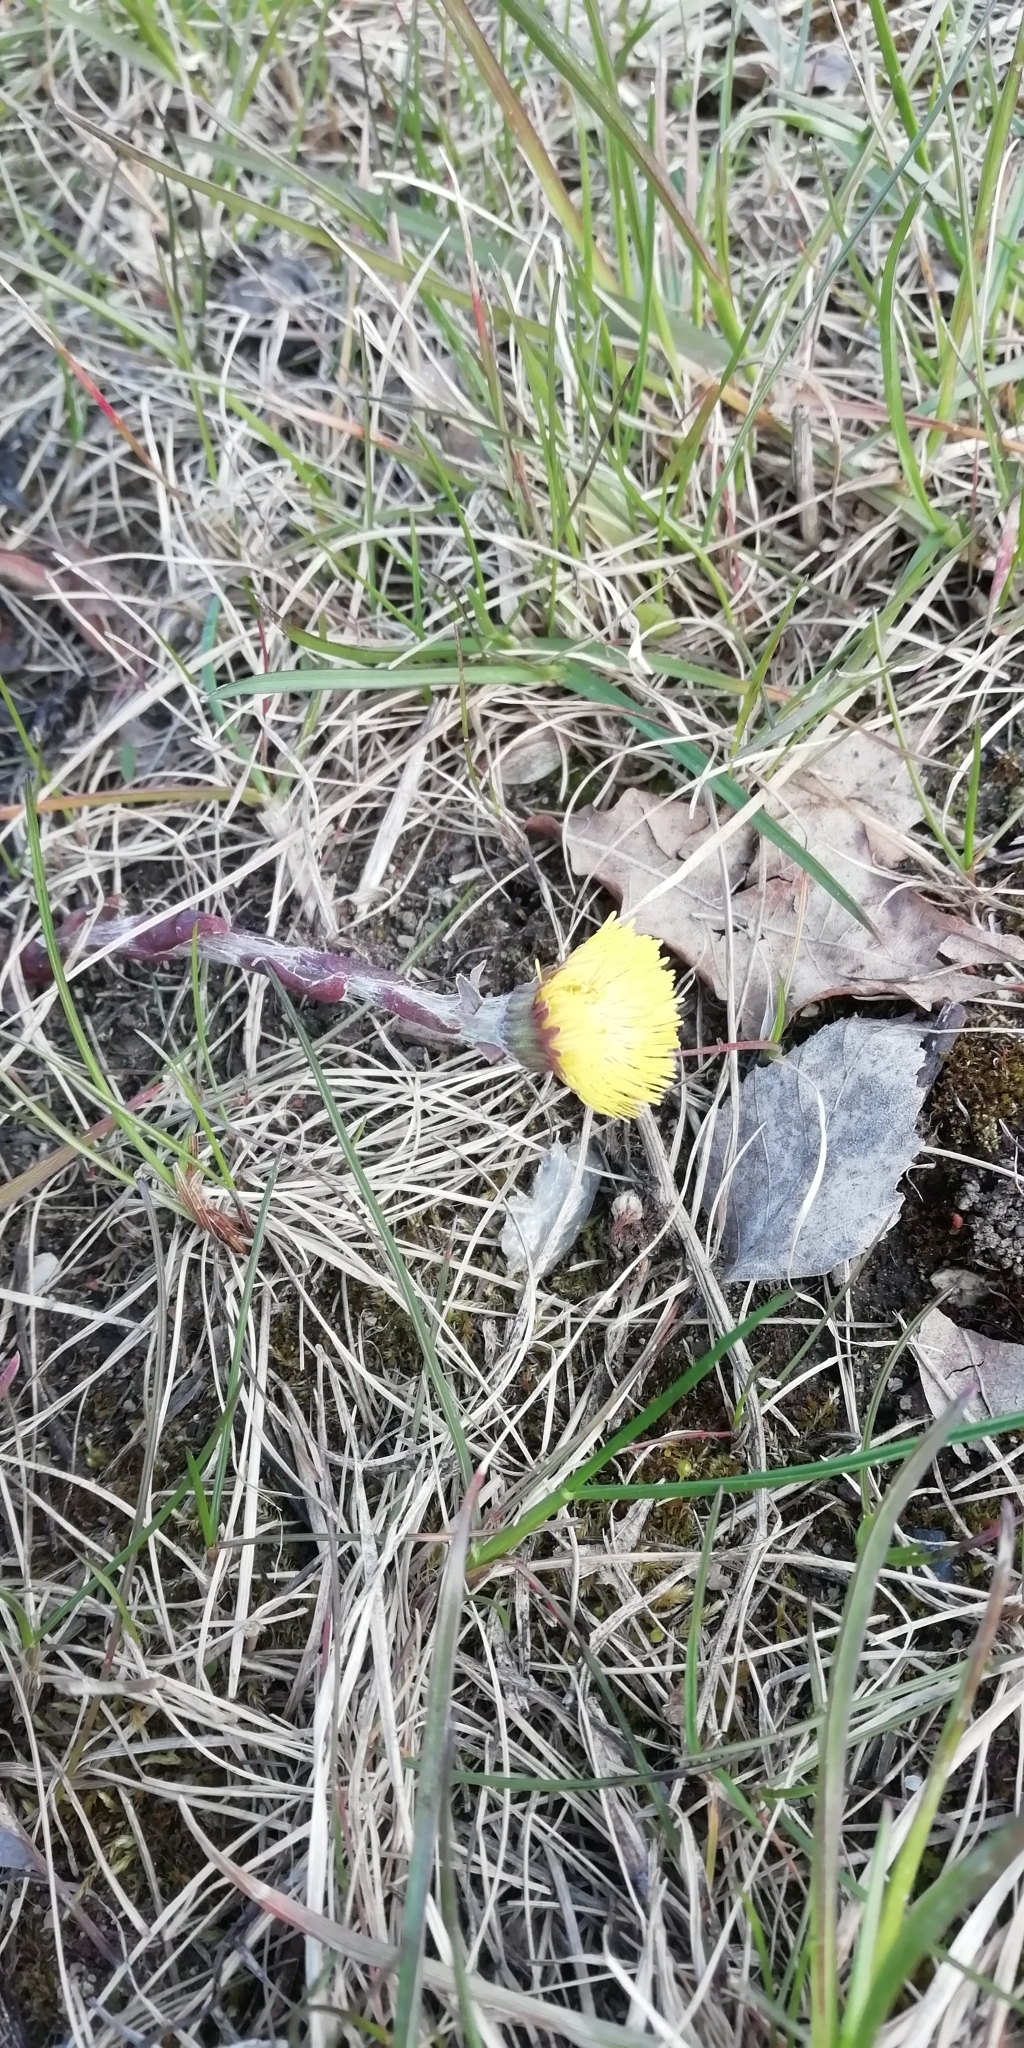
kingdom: Plantae
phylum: Tracheophyta
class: Magnoliopsida
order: Asterales
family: Asteraceae
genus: Tussilago
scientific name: Tussilago farfara
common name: Coltsfoot
